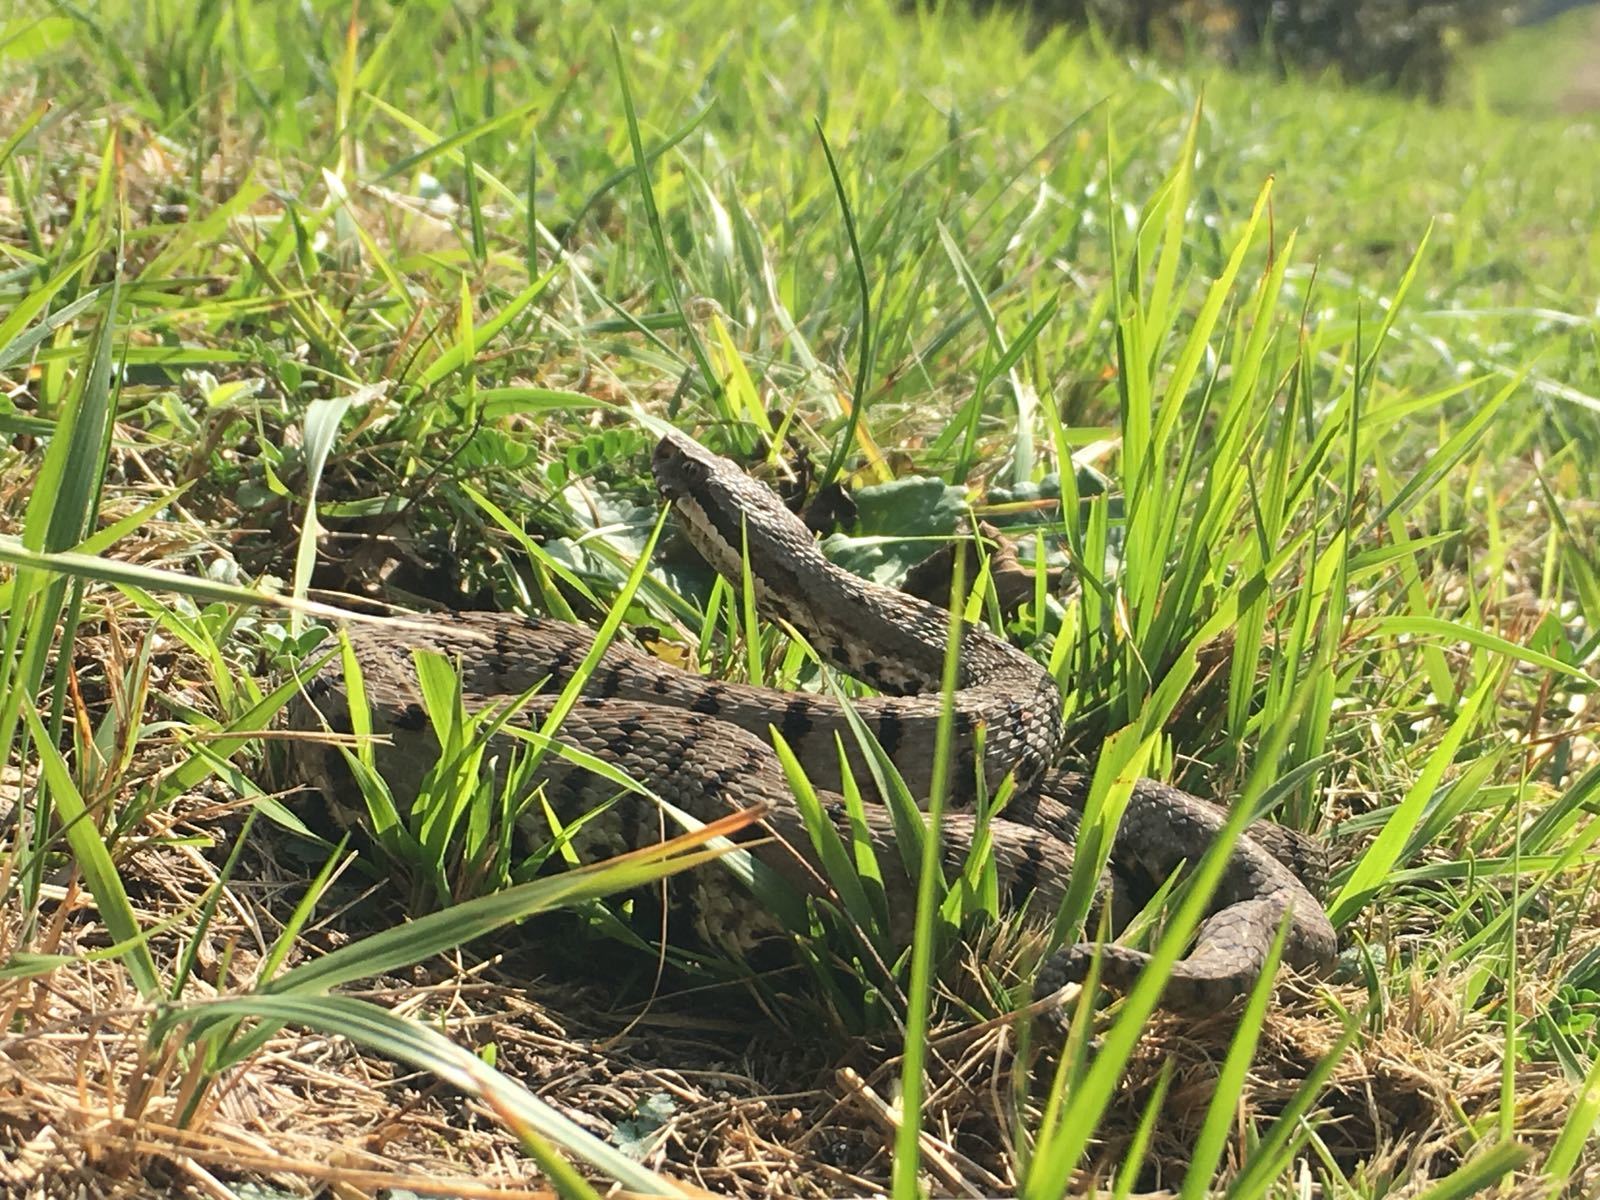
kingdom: Animalia
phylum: Chordata
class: Squamata
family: Viperidae
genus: Vipera
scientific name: Vipera aspis
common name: Asp viper
